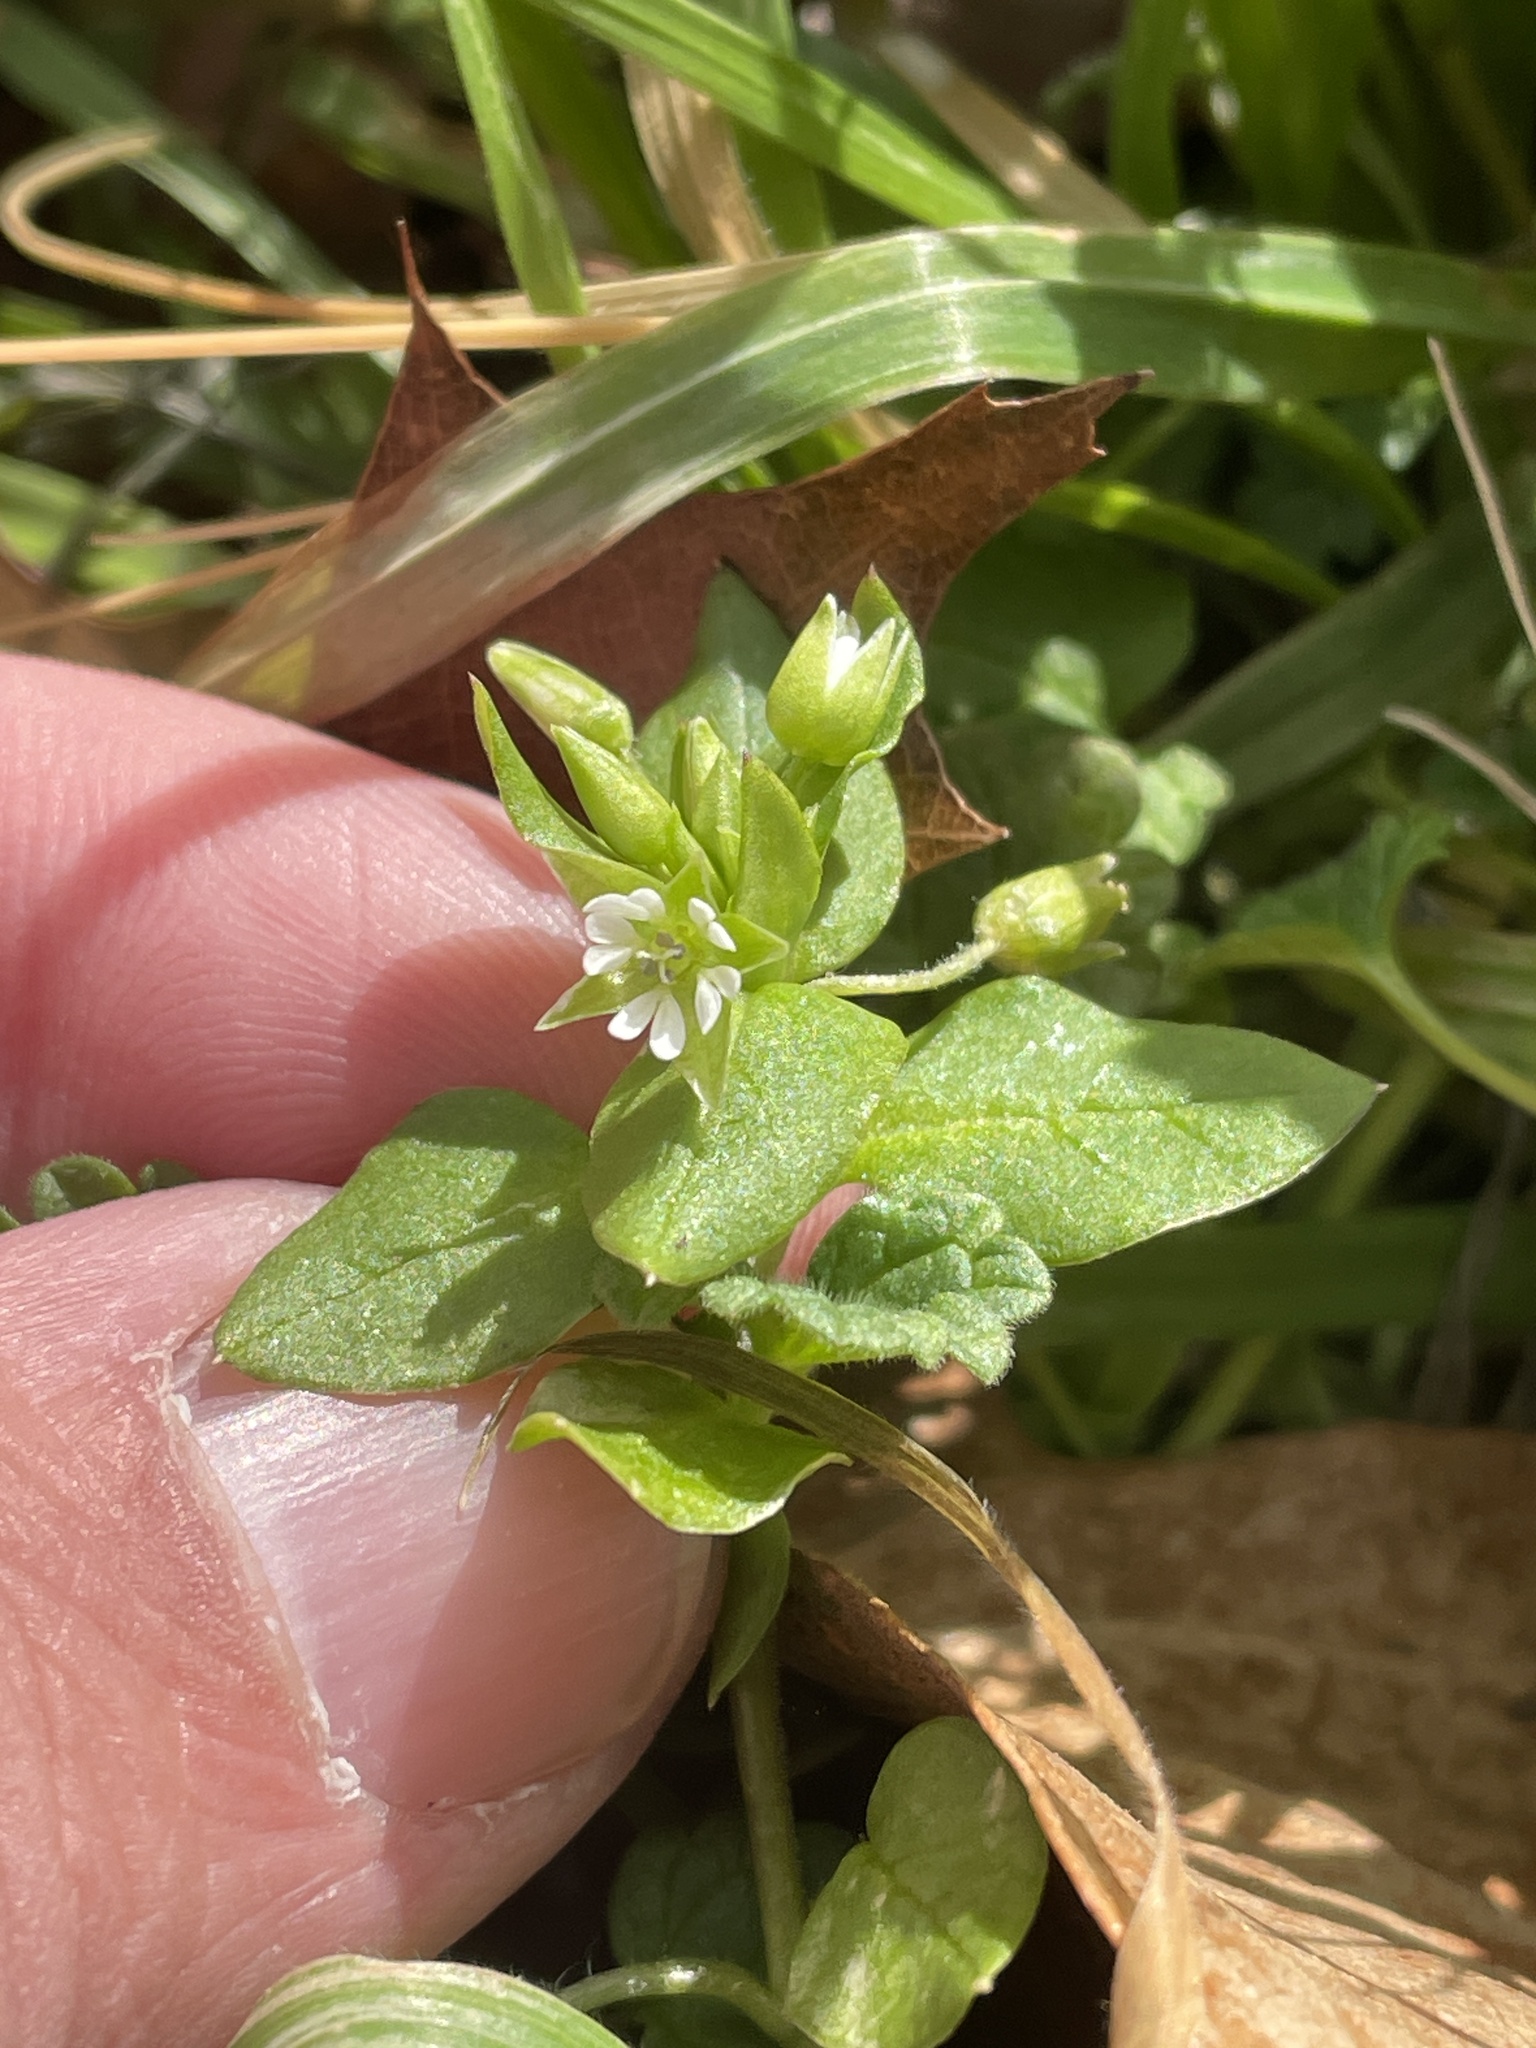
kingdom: Plantae
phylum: Tracheophyta
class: Magnoliopsida
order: Caryophyllales
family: Caryophyllaceae
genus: Stellaria
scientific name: Stellaria media
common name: Common chickweed
